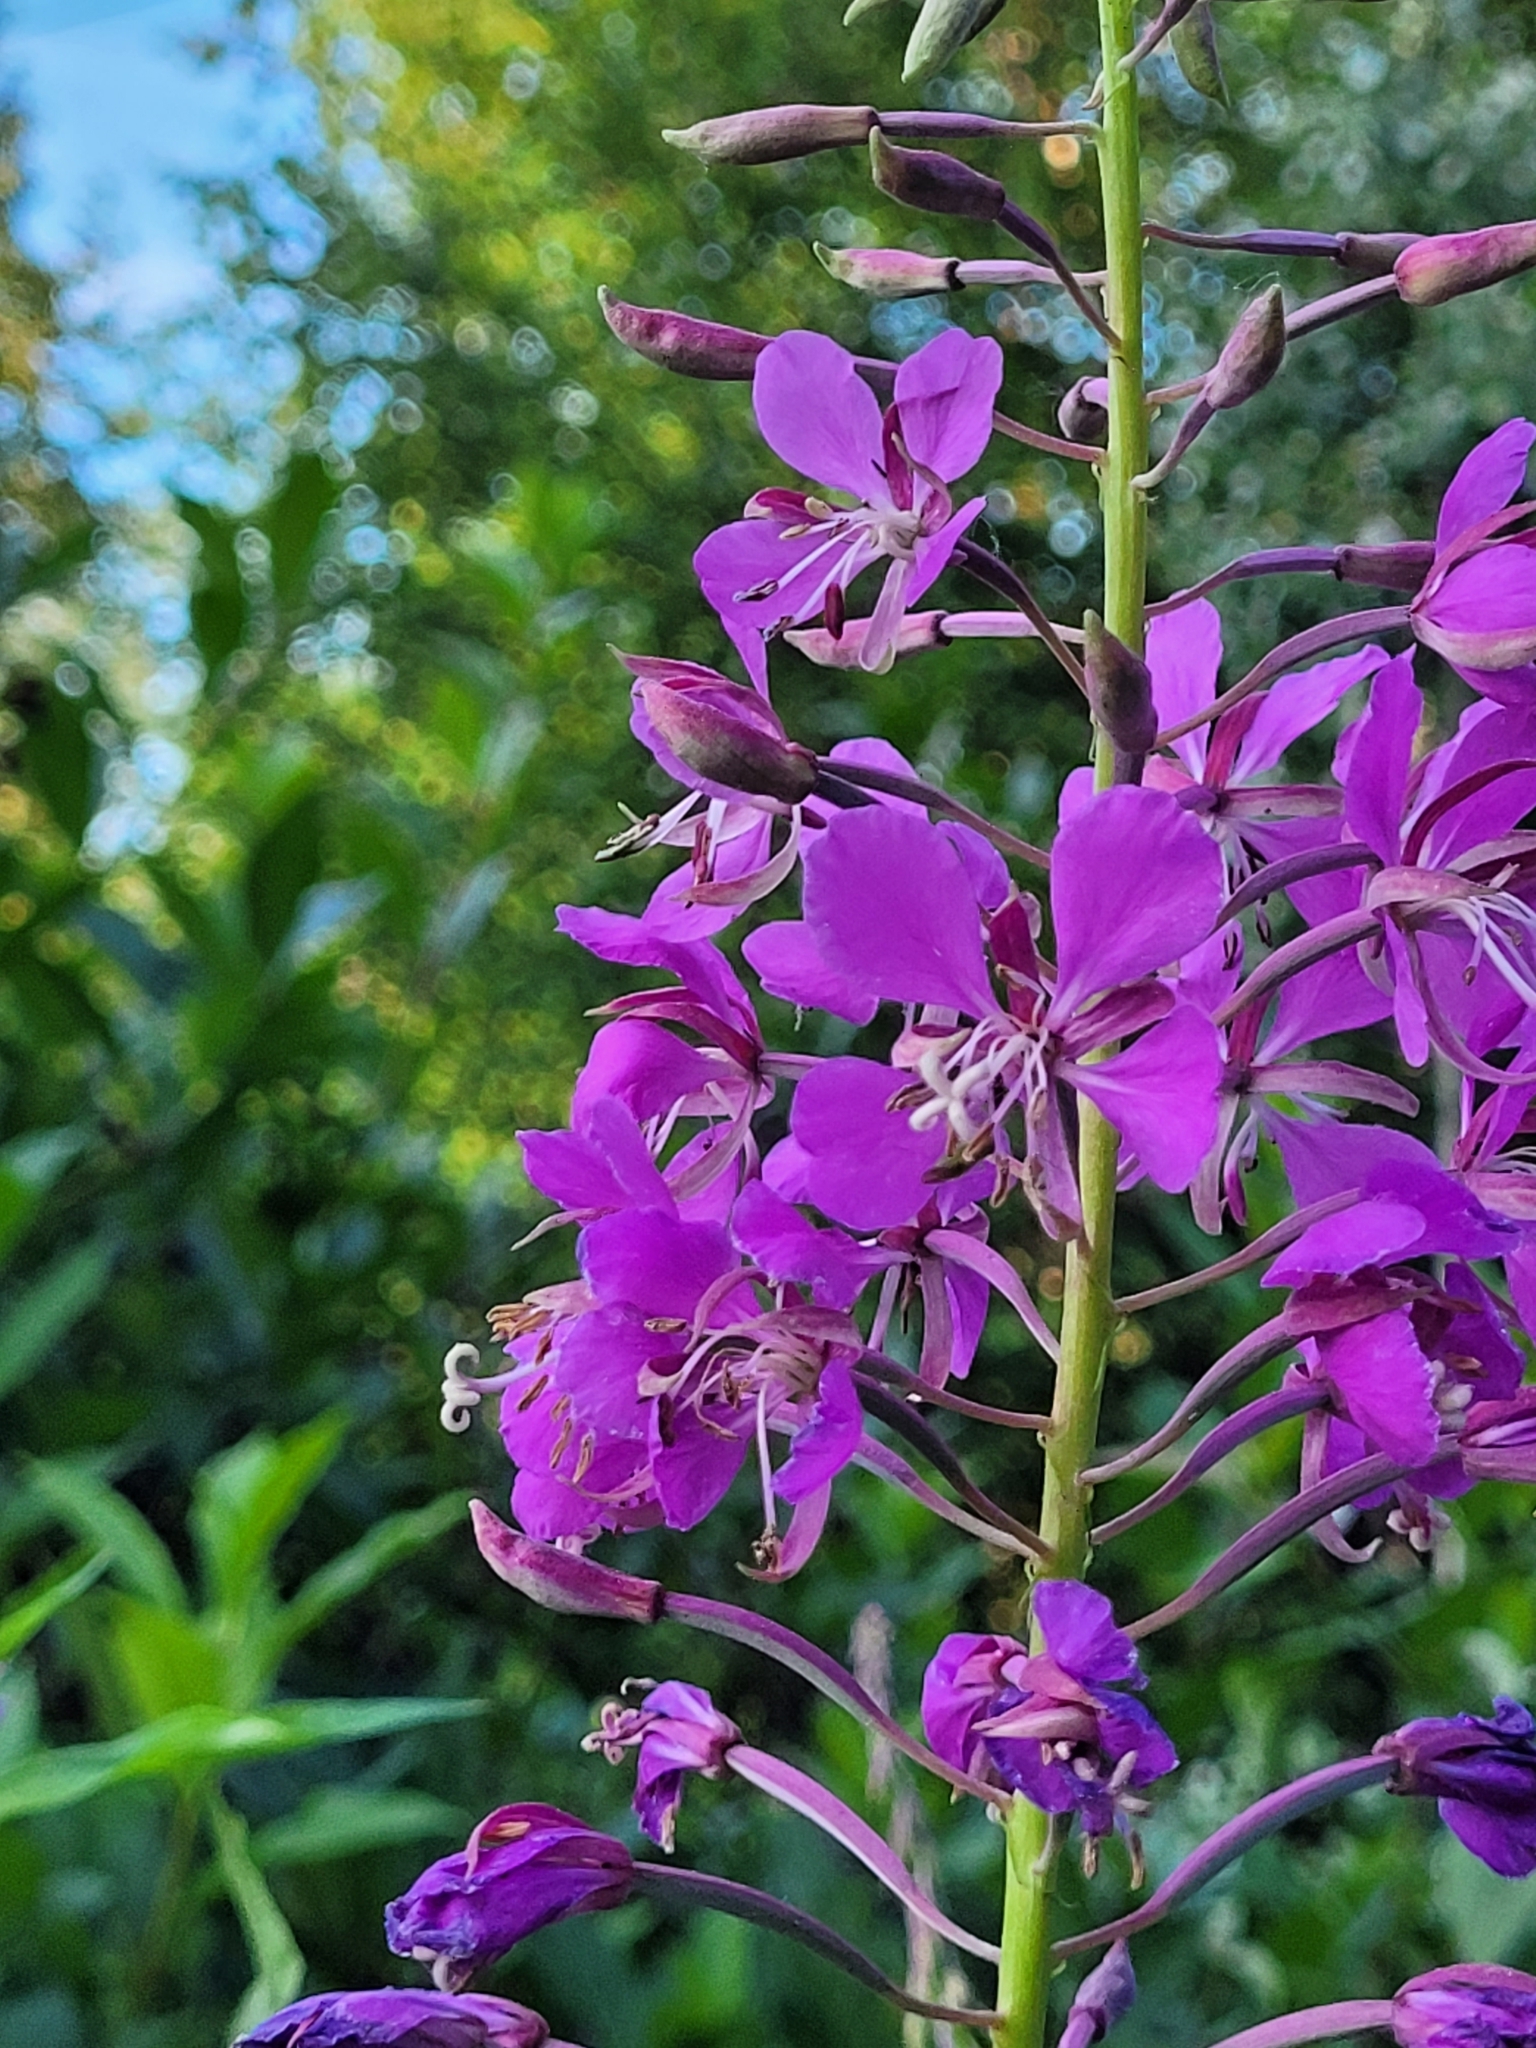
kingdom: Plantae
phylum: Tracheophyta
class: Magnoliopsida
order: Myrtales
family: Onagraceae
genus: Chamaenerion
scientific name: Chamaenerion angustifolium
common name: Fireweed
